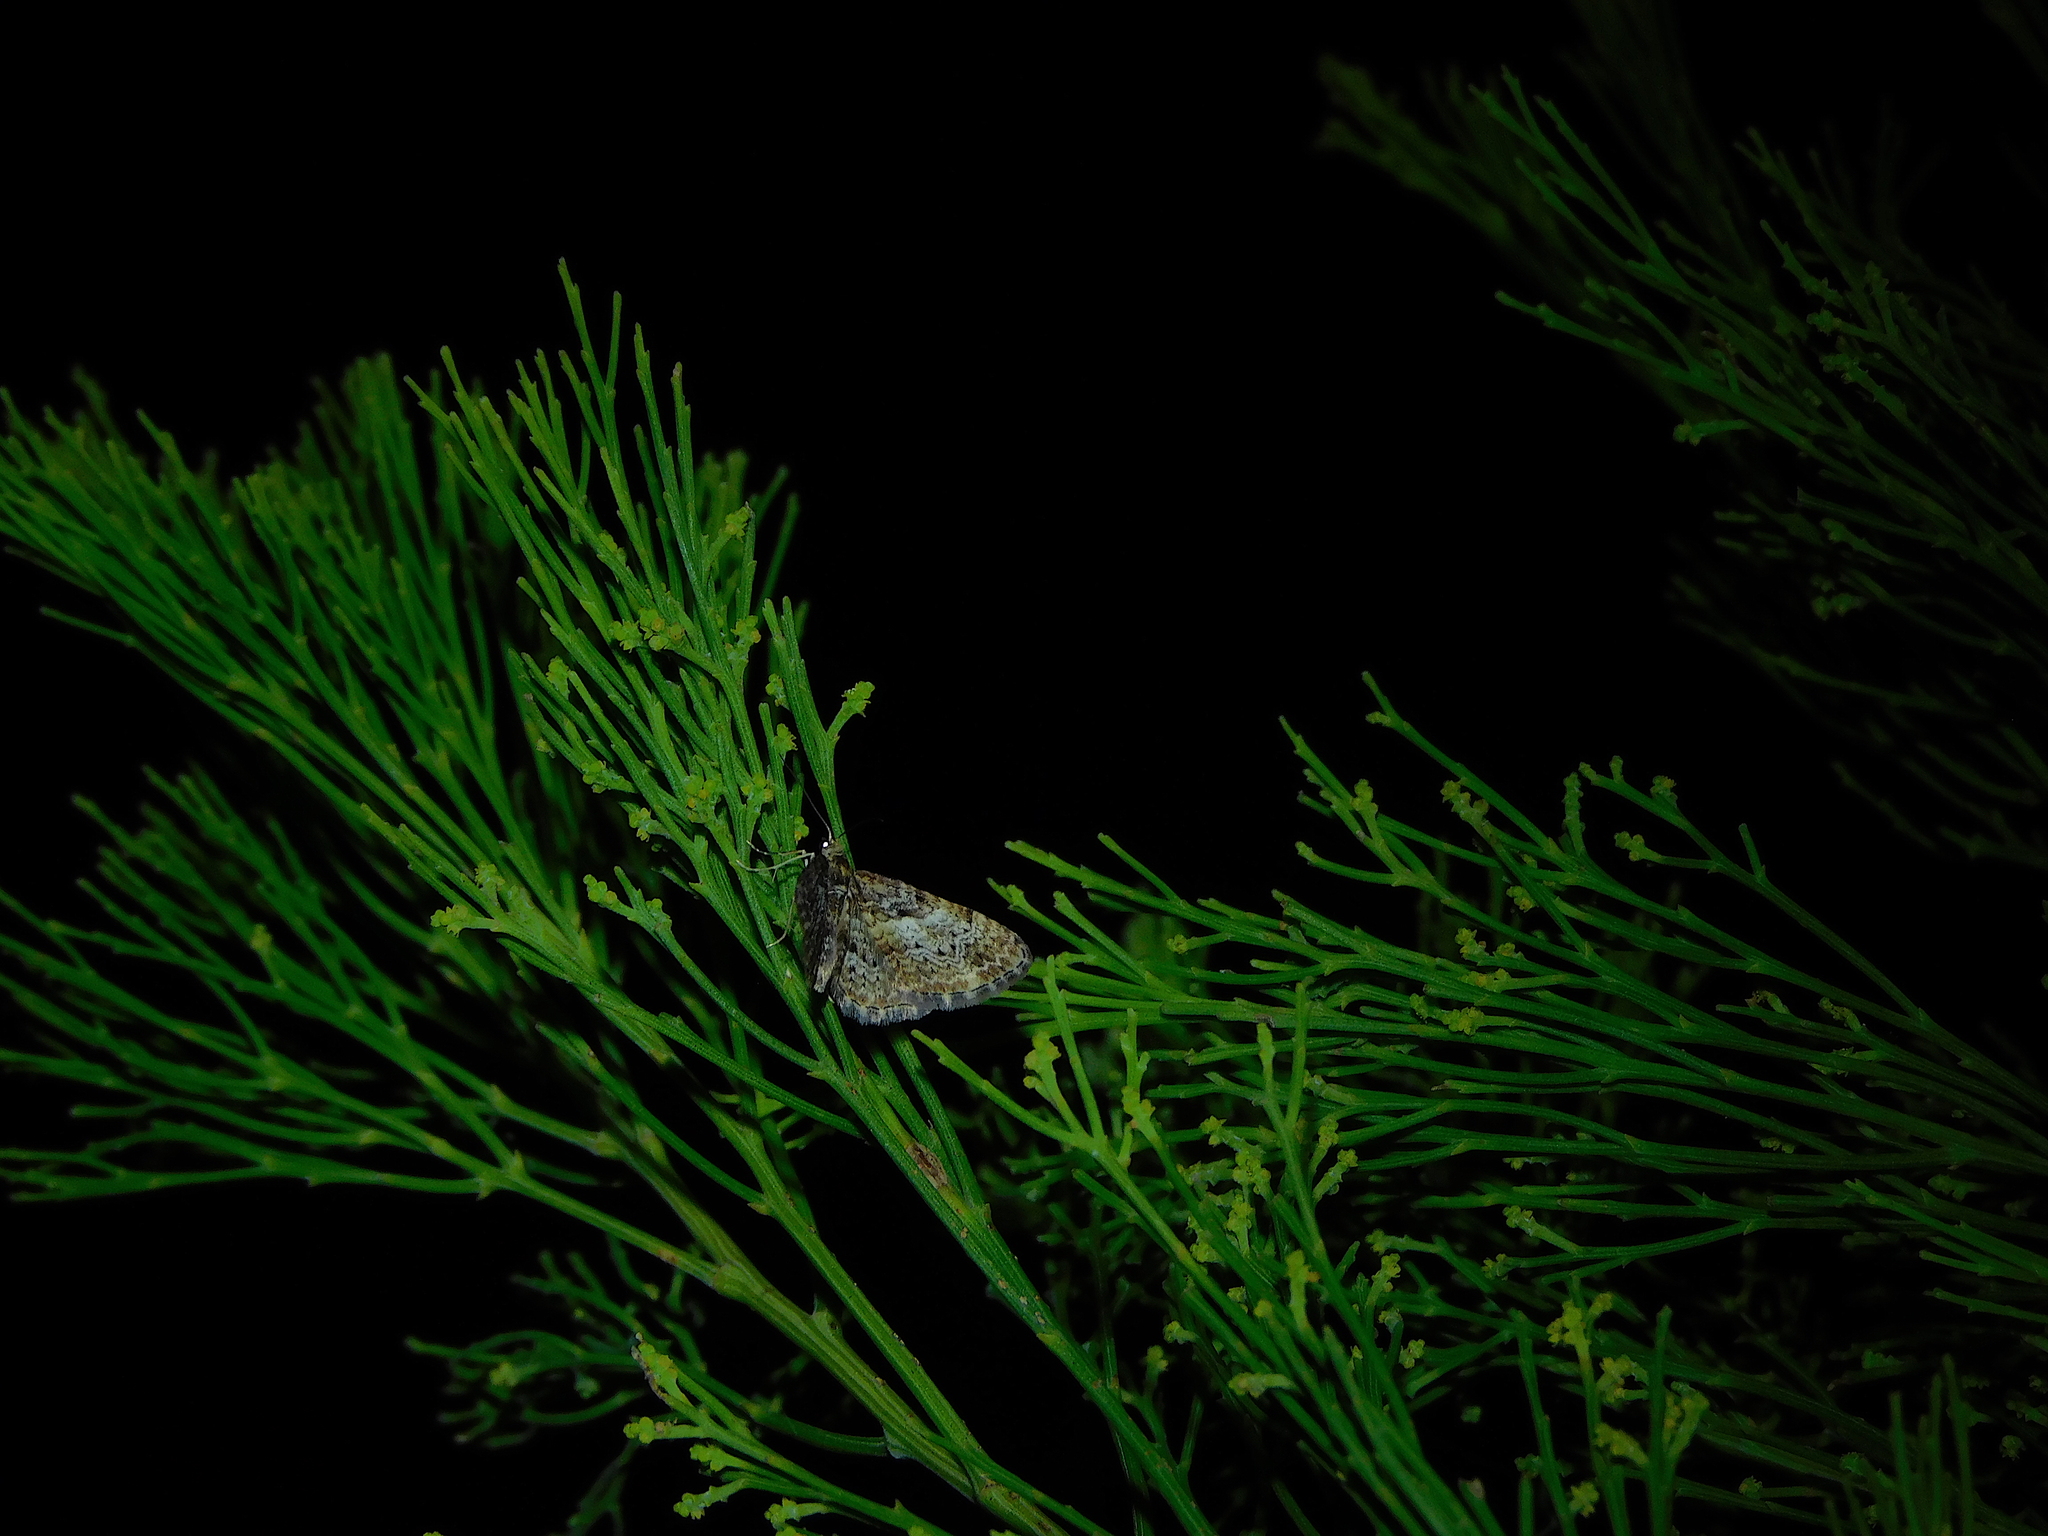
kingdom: Animalia
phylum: Arthropoda
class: Insecta
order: Lepidoptera
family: Geometridae
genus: Chloroclystis
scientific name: Chloroclystis approximata
